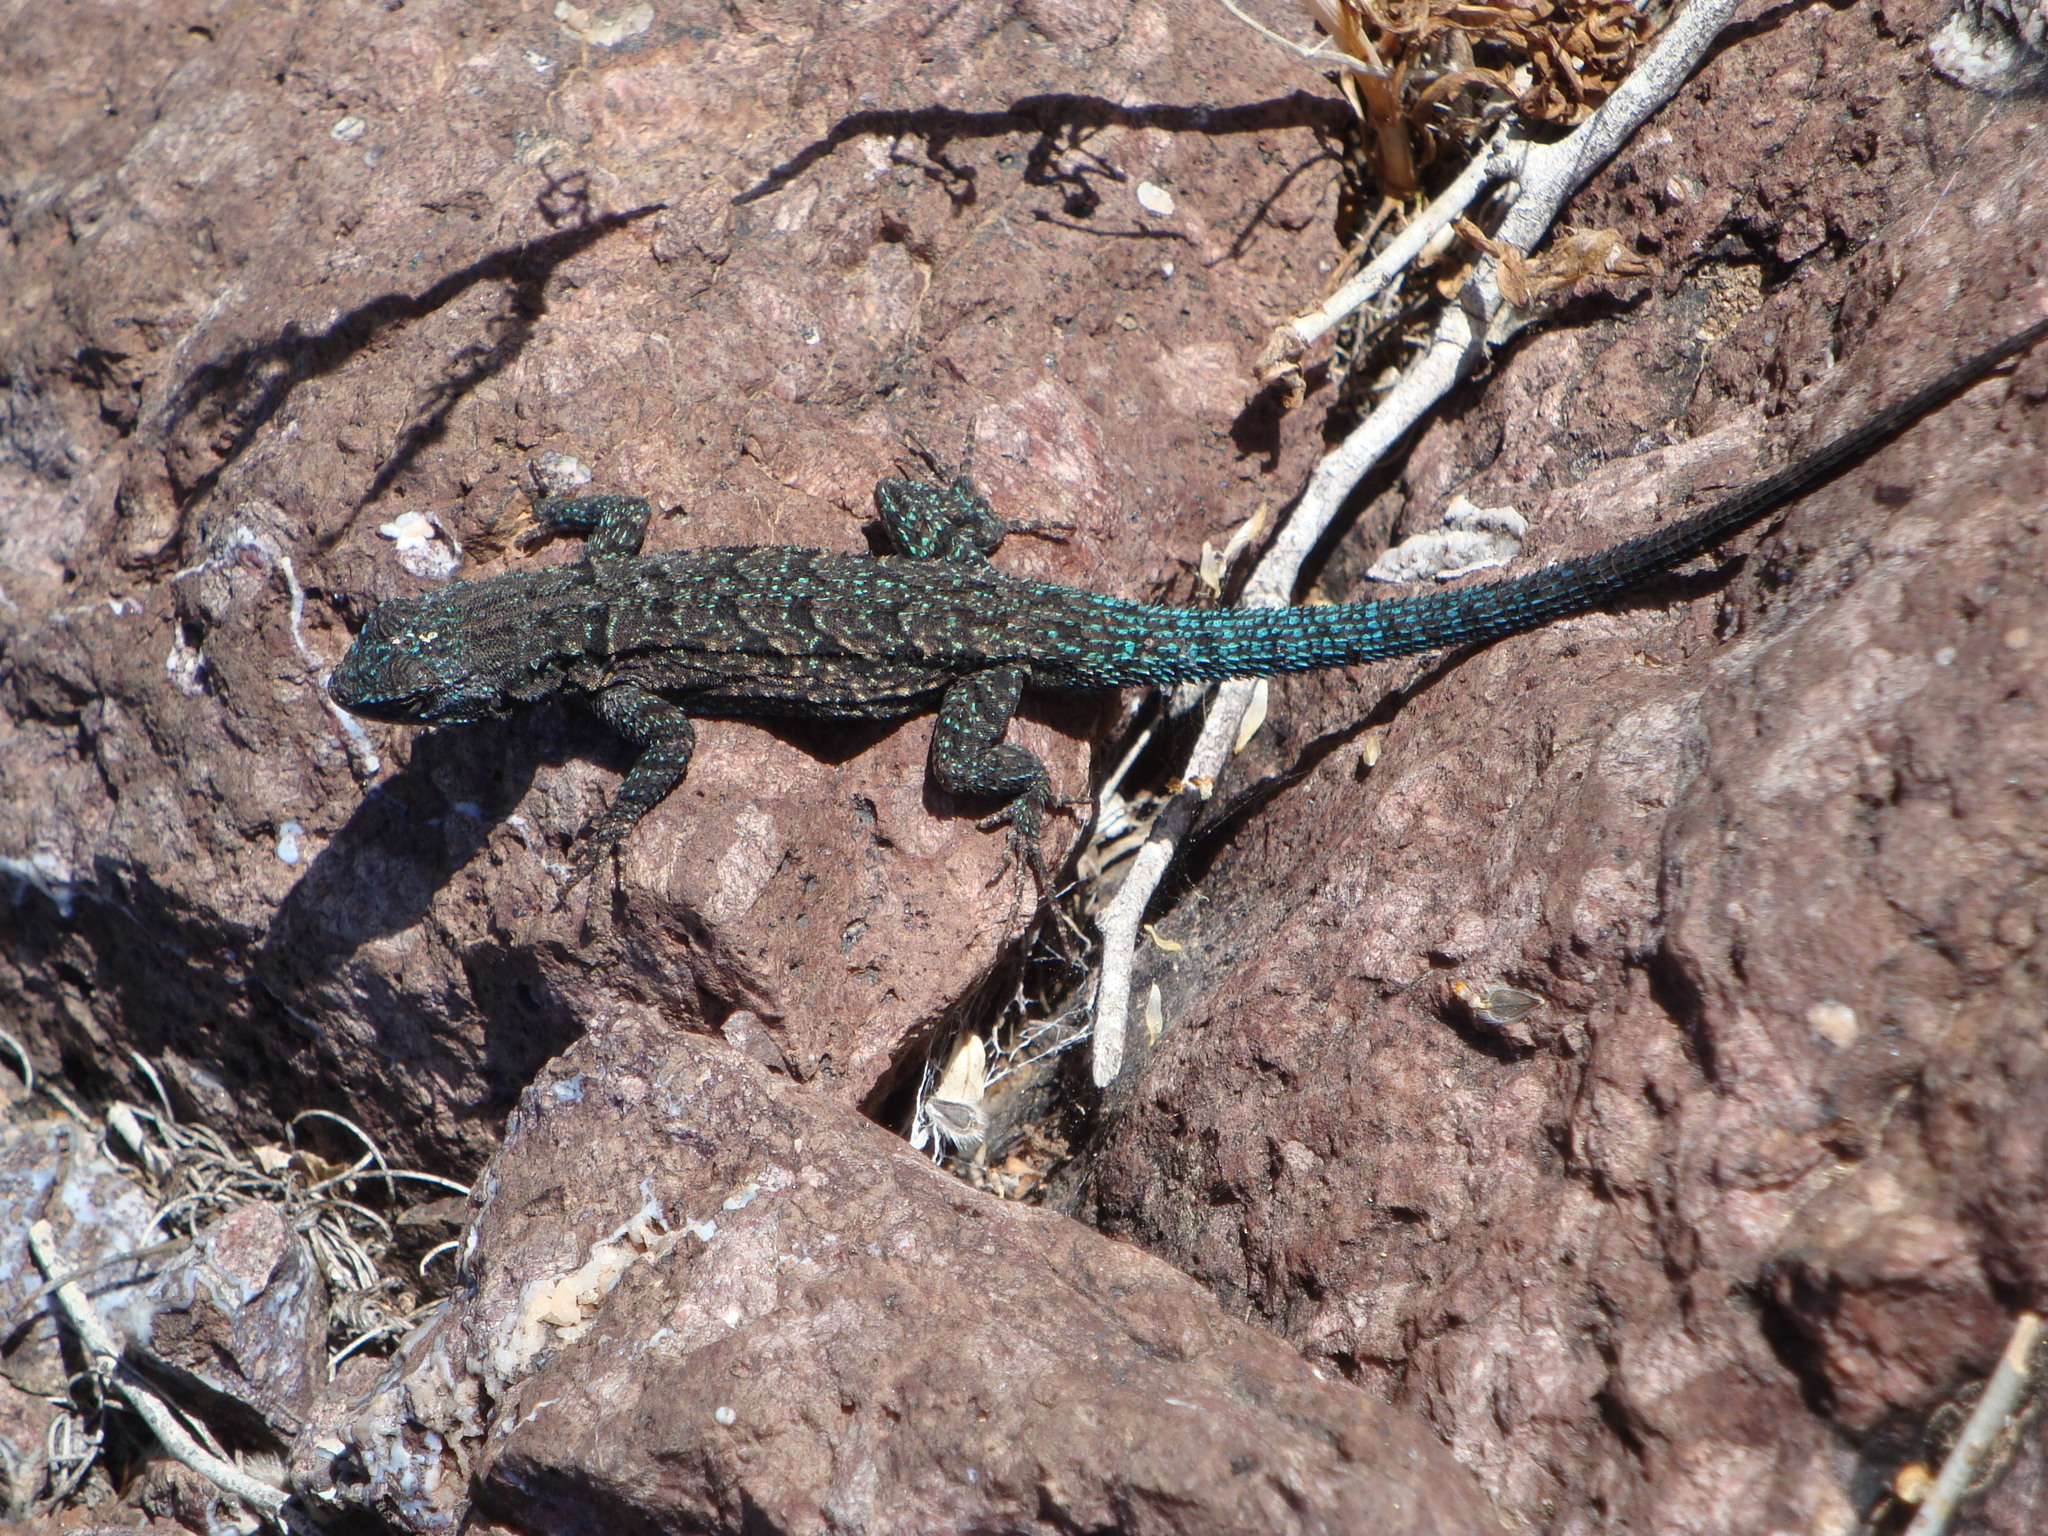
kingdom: Animalia
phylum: Chordata
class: Squamata
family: Phrynosomatidae
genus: Urosaurus
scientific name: Urosaurus ornatus
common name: Ornate tree lizard
